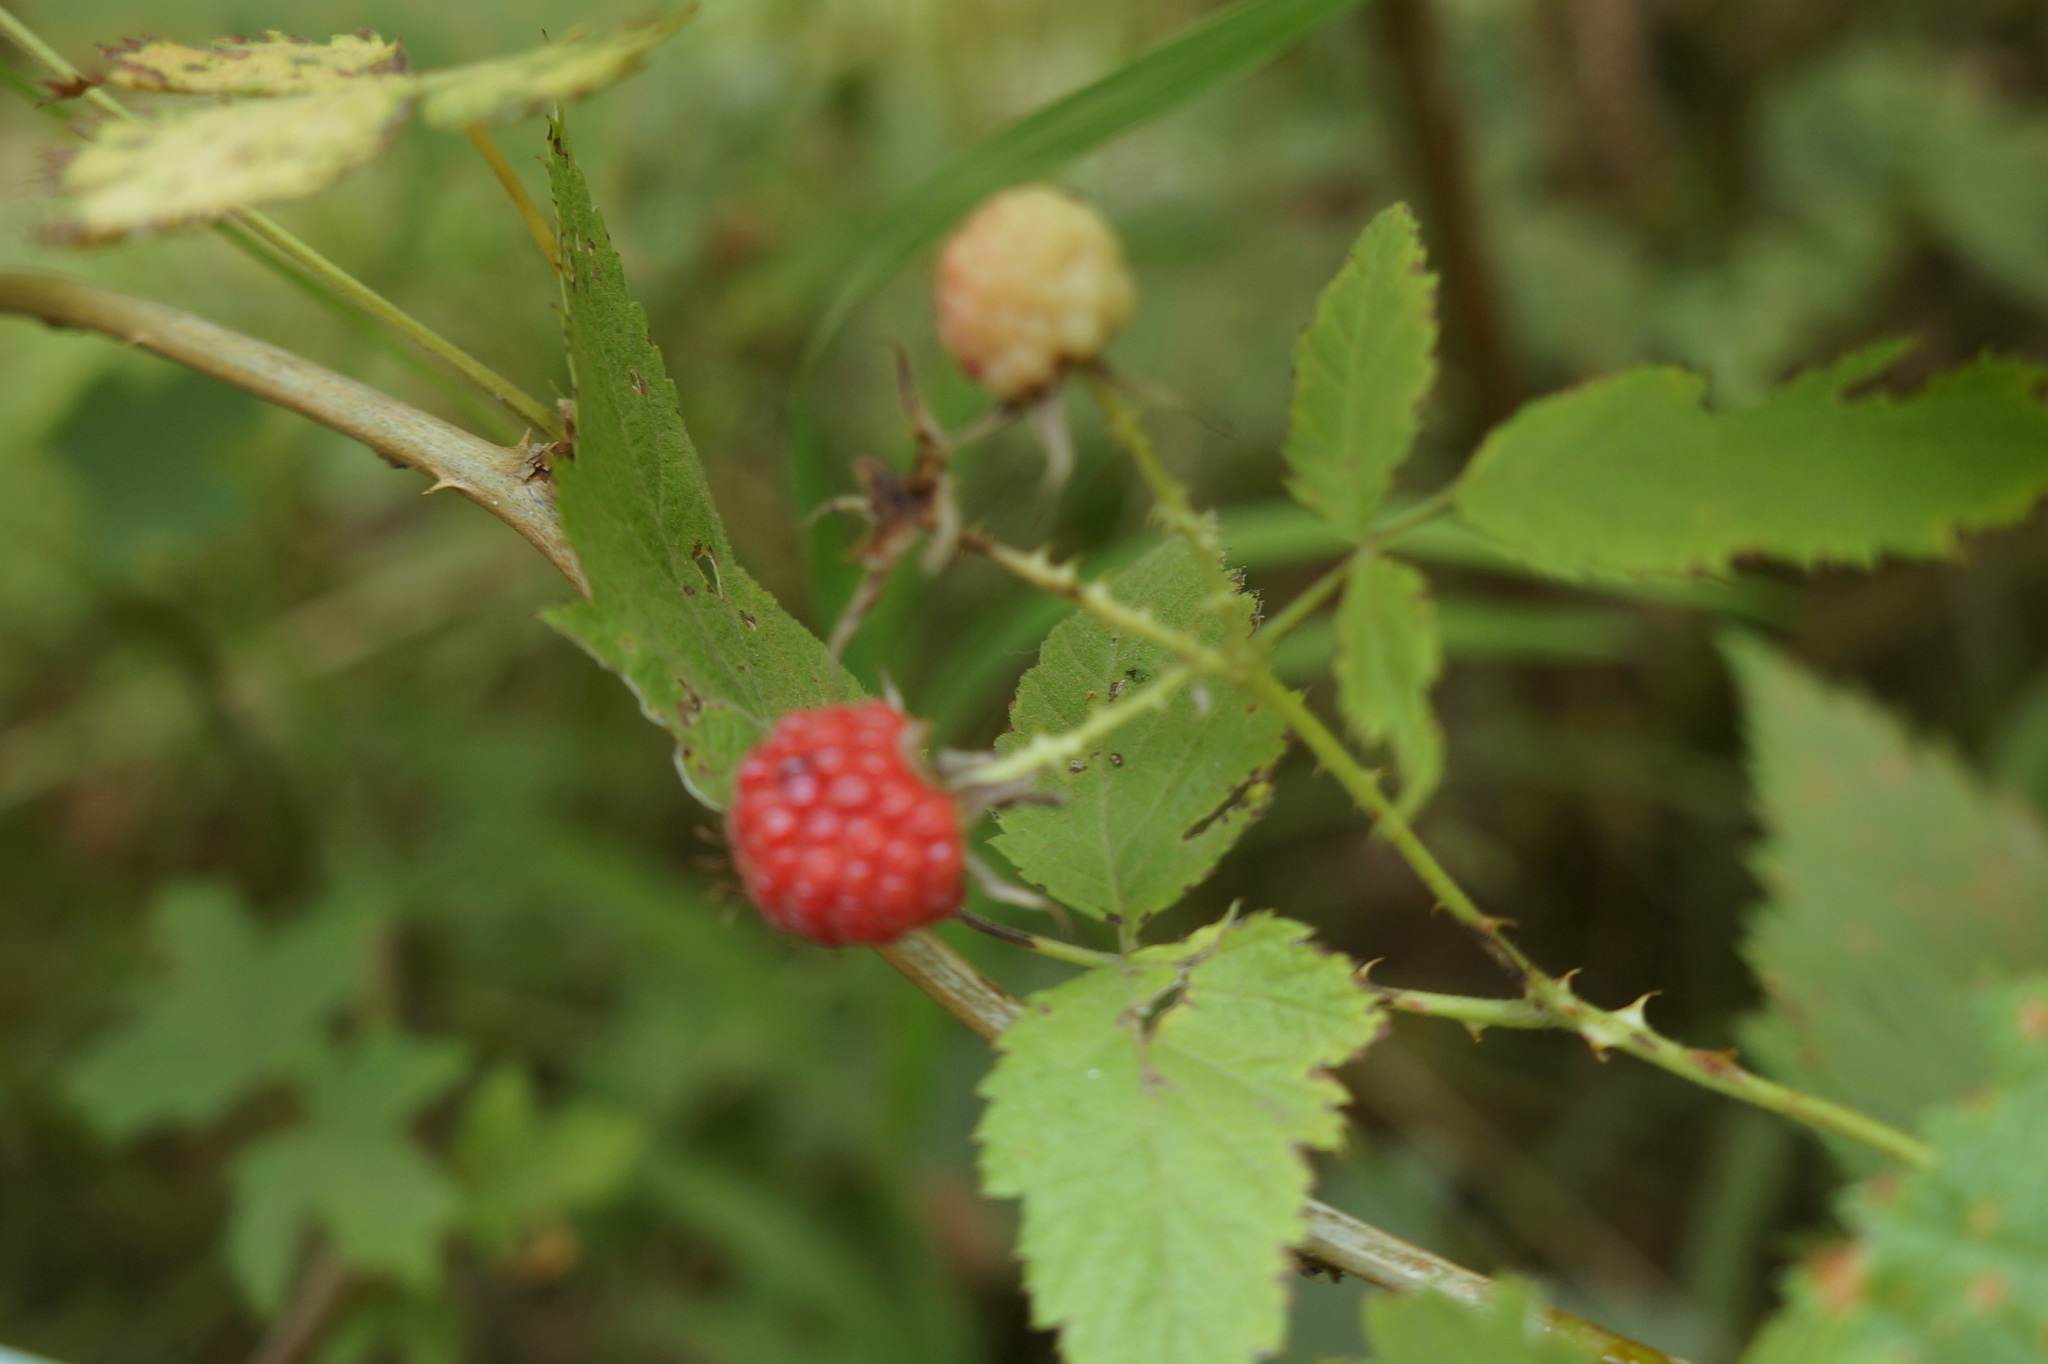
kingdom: Plantae
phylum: Tracheophyta
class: Magnoliopsida
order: Rosales
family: Rosaceae
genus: Rubus
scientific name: Rubus leucodermis
